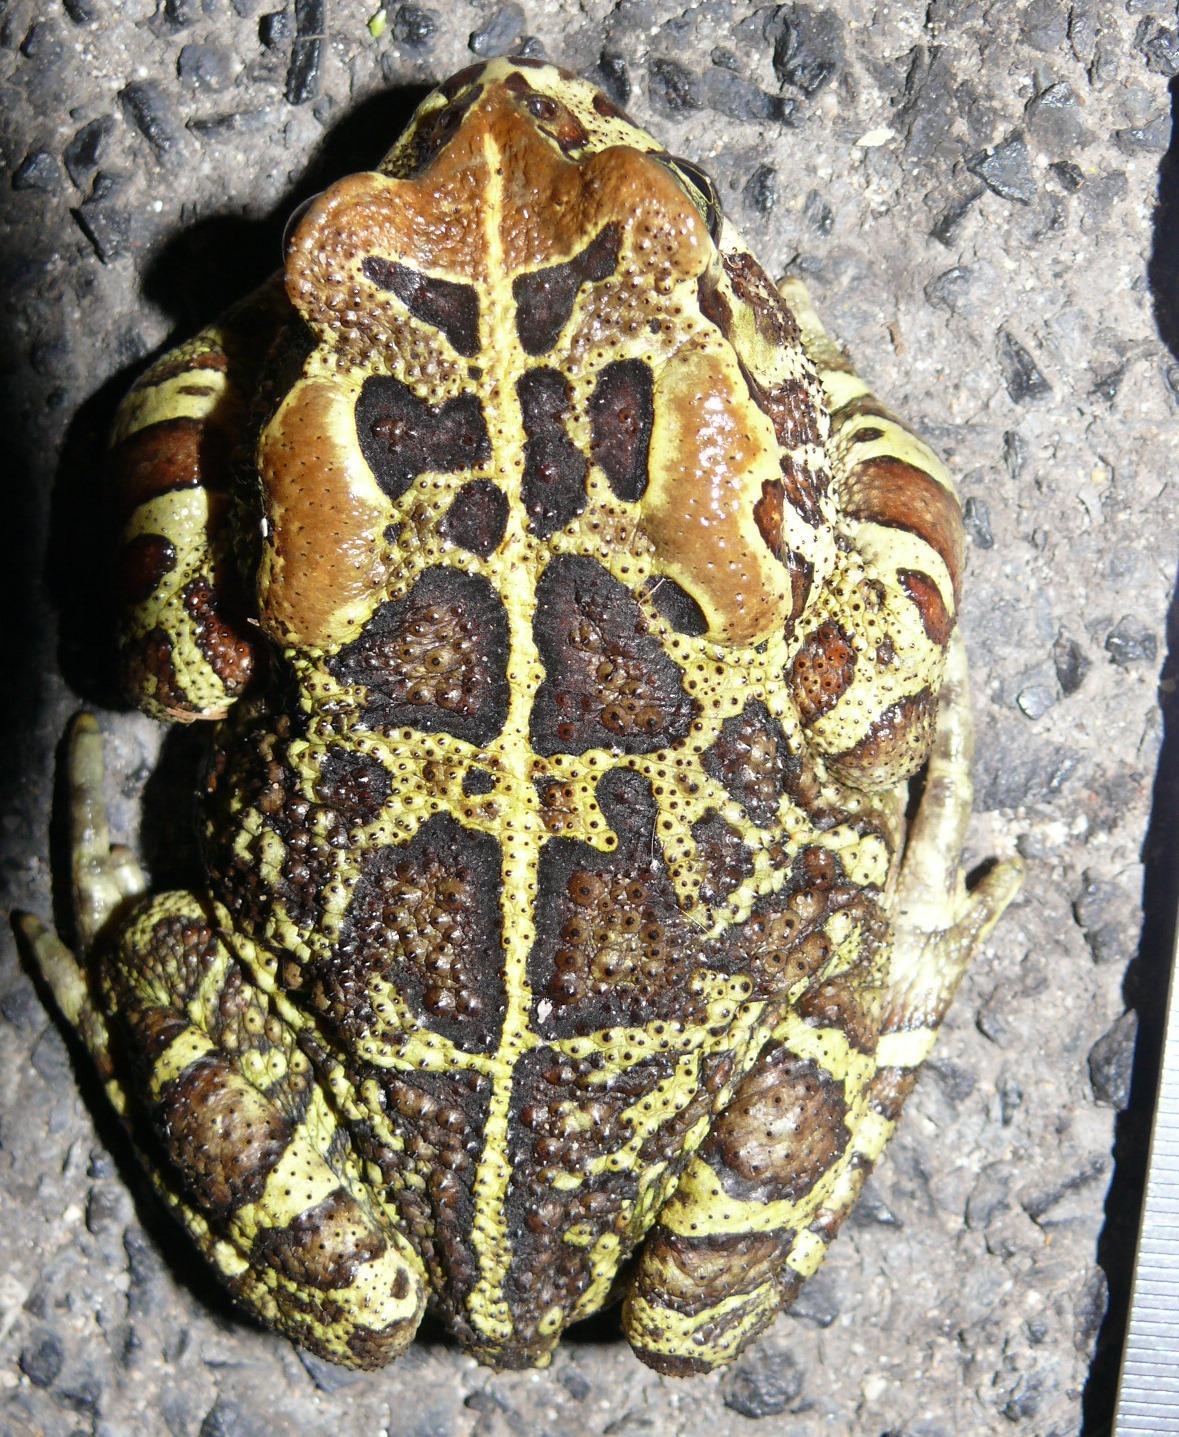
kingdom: Animalia
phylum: Chordata
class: Amphibia
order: Anura
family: Bufonidae
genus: Sclerophrys
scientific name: Sclerophrys pantherina
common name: Panther toad
